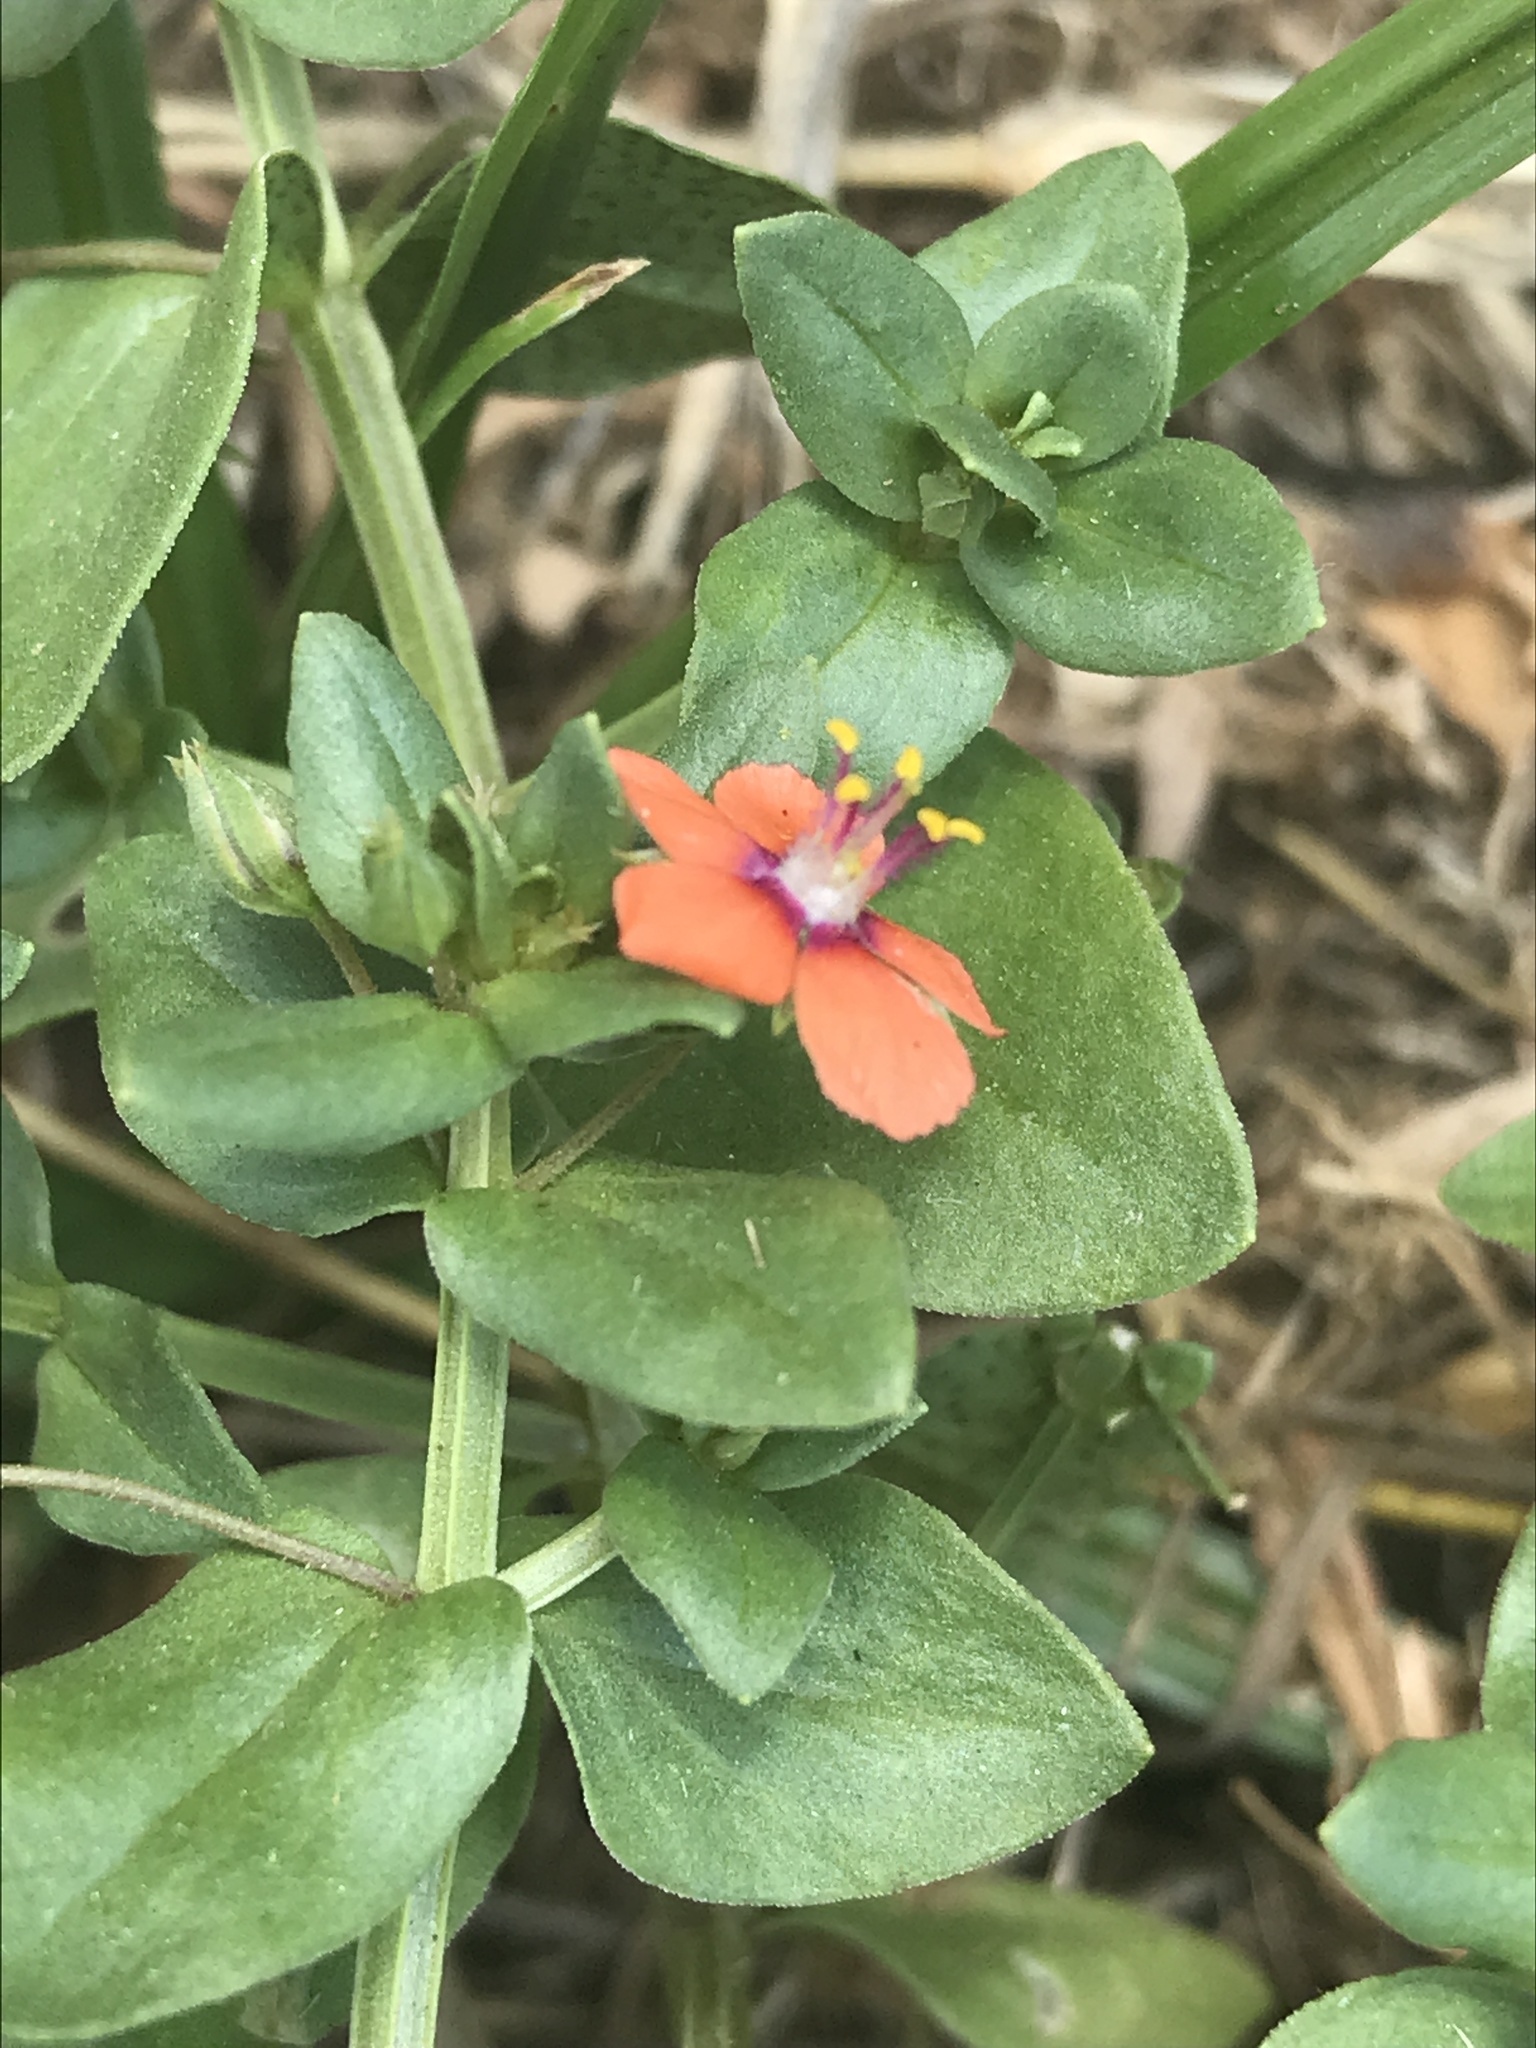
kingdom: Plantae
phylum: Tracheophyta
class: Magnoliopsida
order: Ericales
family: Primulaceae
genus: Lysimachia
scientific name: Lysimachia arvensis
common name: Scarlet pimpernel
